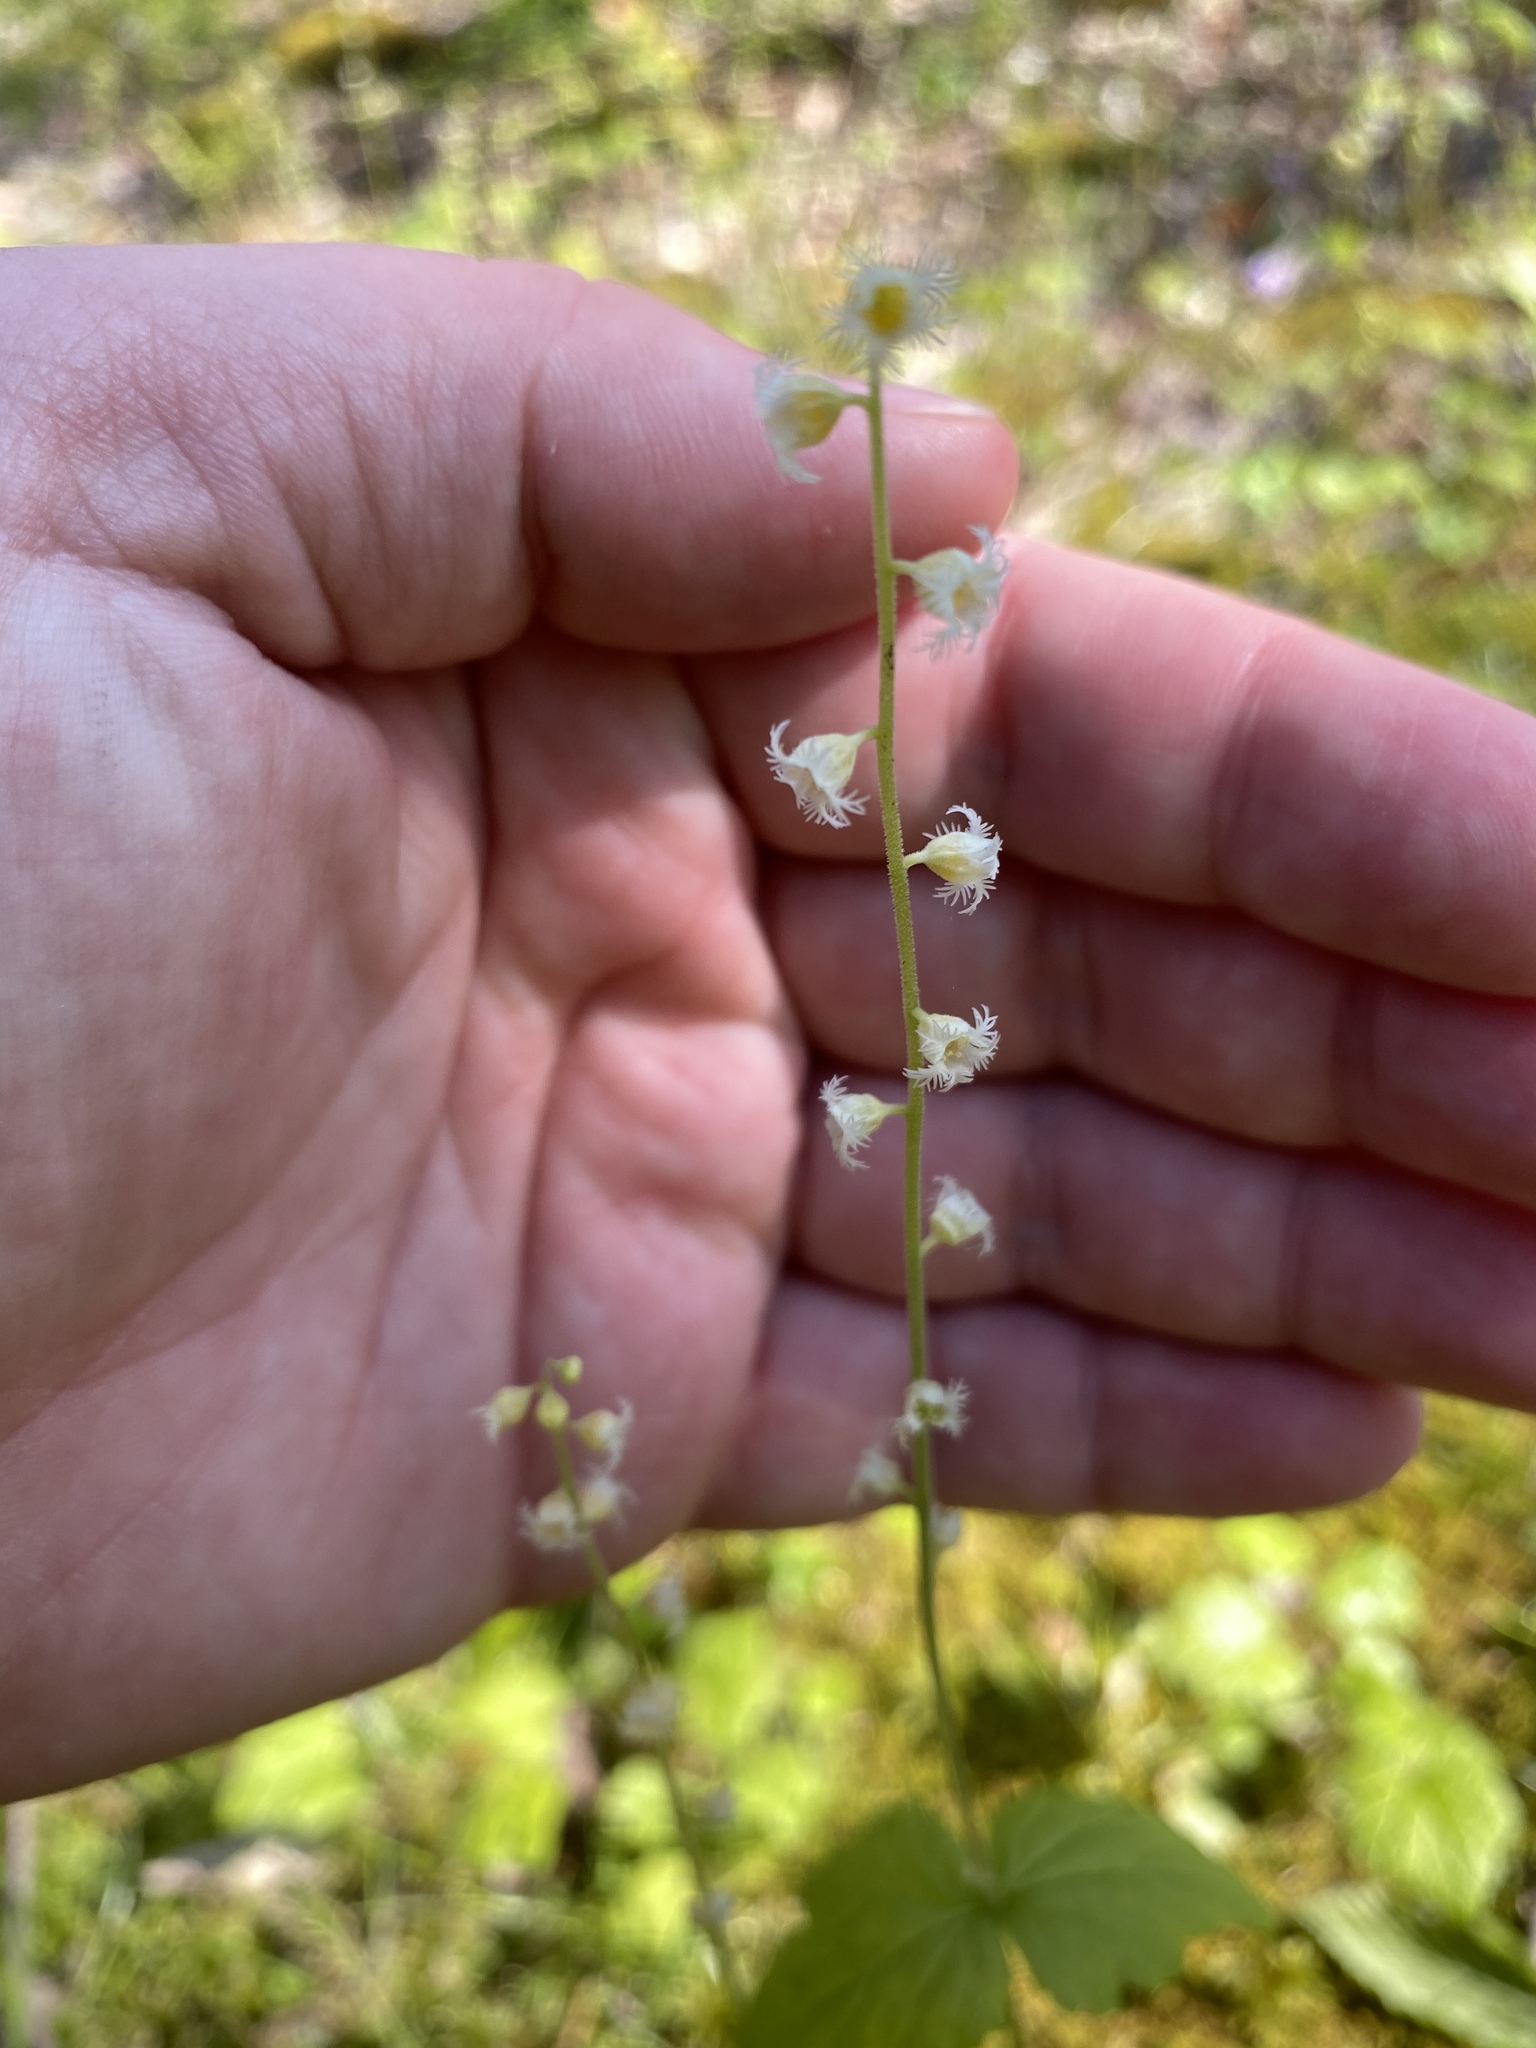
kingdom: Plantae
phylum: Tracheophyta
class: Magnoliopsida
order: Saxifragales
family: Saxifragaceae
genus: Mitella
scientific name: Mitella diphylla
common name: Coolwort
